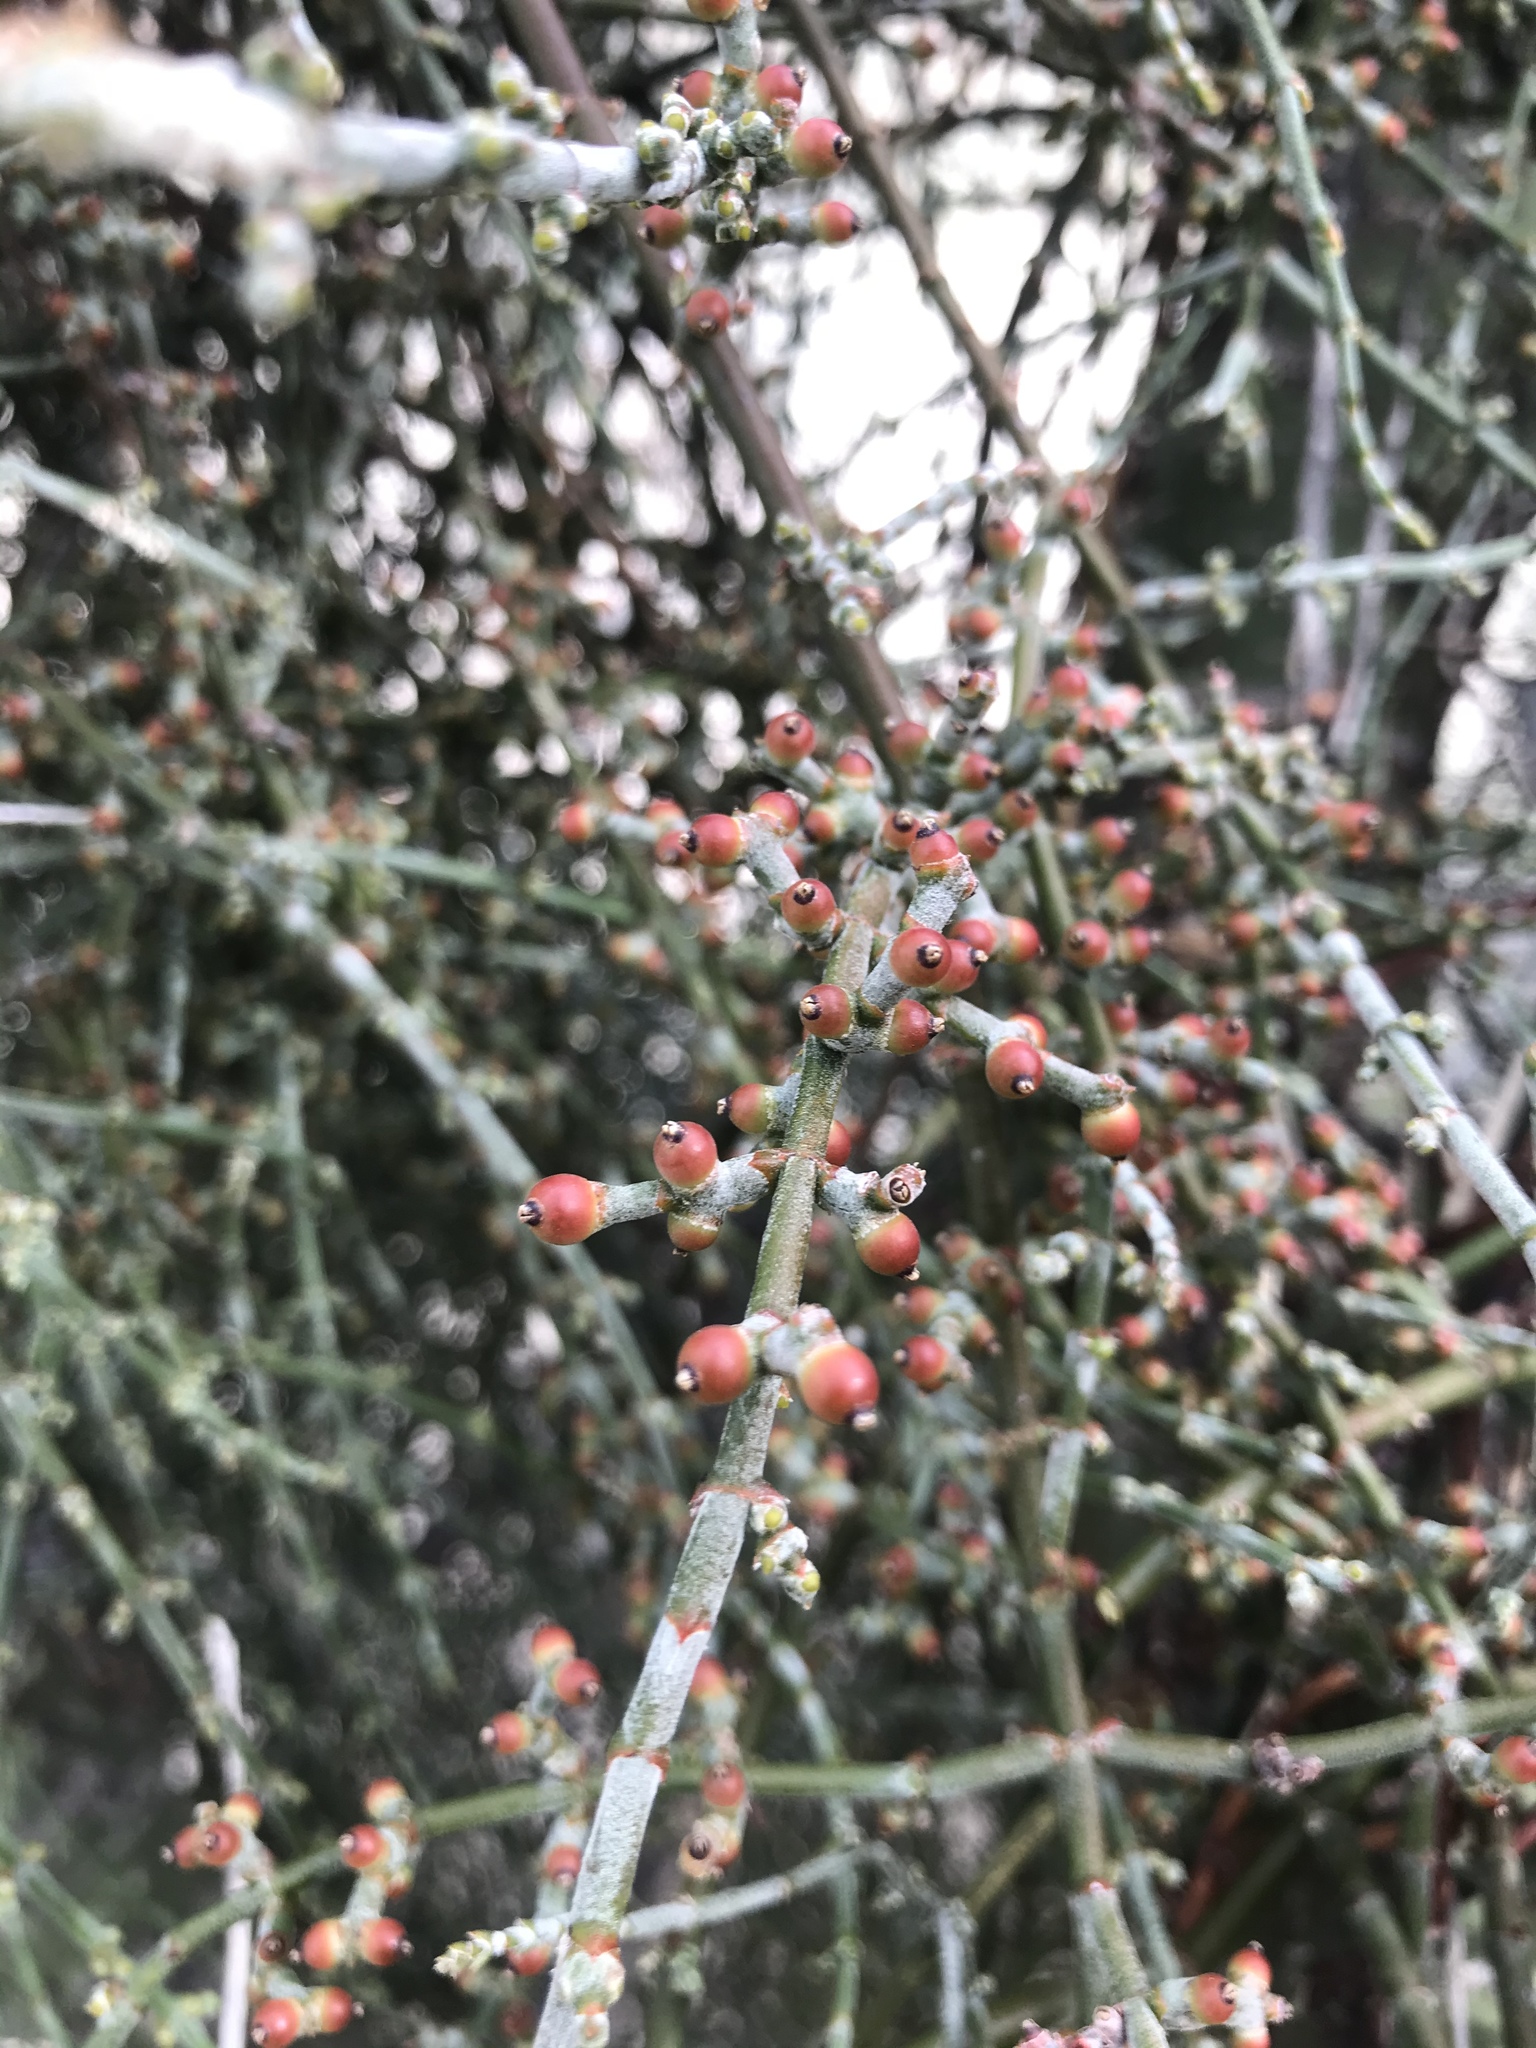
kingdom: Plantae
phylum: Tracheophyta
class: Magnoliopsida
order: Santalales
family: Viscaceae
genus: Phoradendron
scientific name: Phoradendron californicum
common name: Acacia mistletoe
